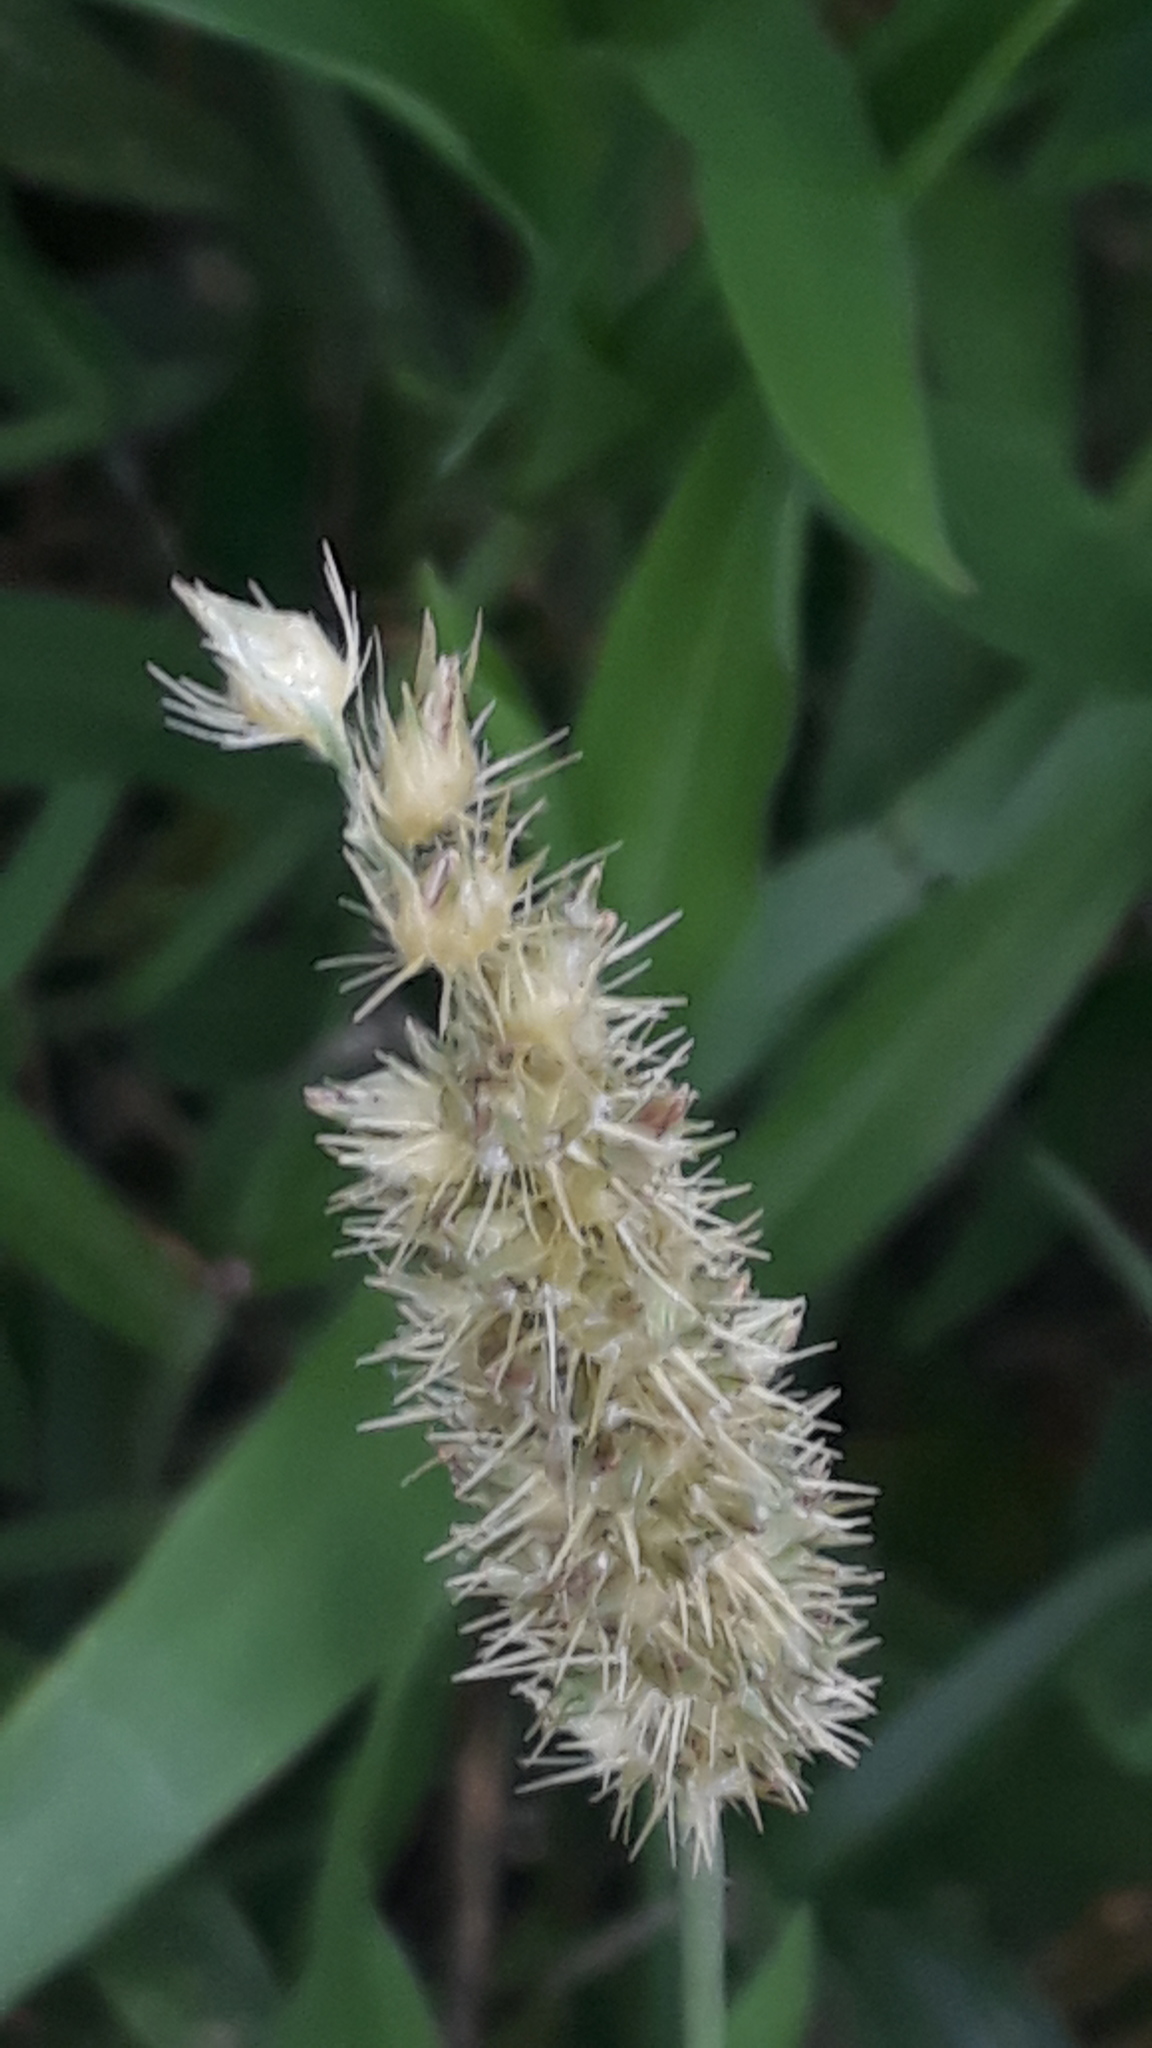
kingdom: Plantae
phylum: Tracheophyta
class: Liliopsida
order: Poales
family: Poaceae
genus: Cenchrus
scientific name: Cenchrus echinatus
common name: Southern sandbur
